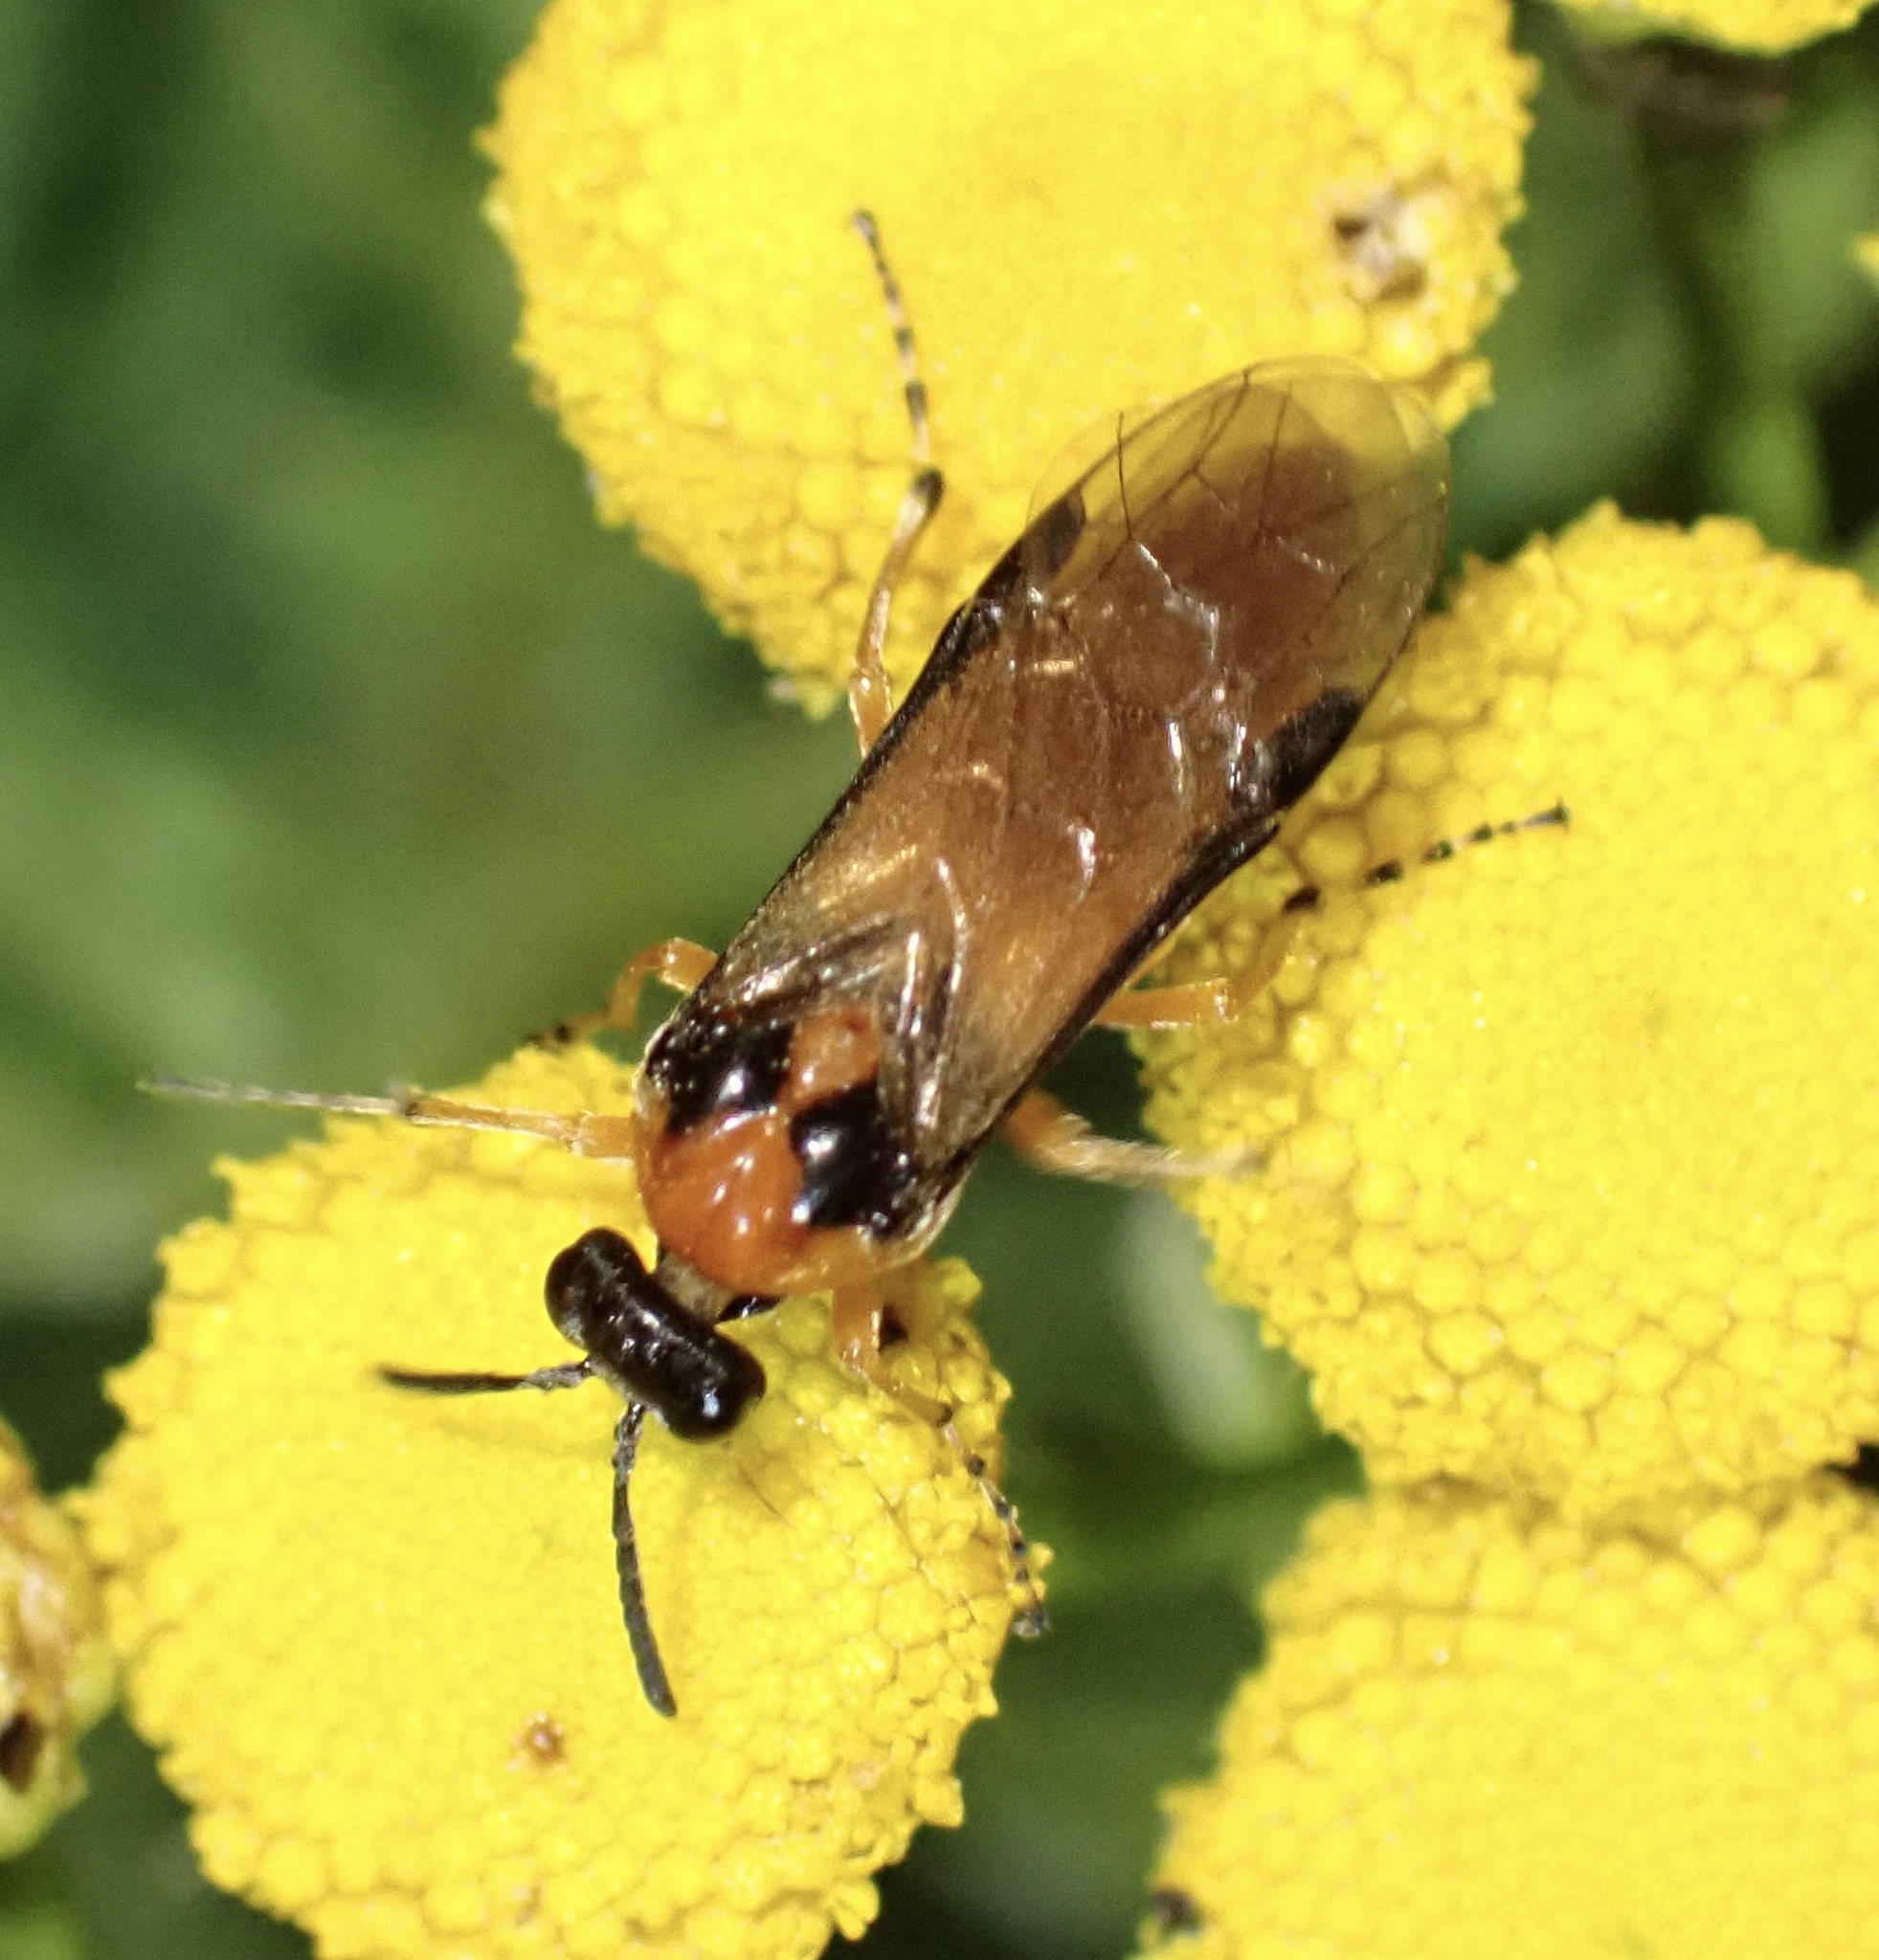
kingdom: Animalia
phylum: Arthropoda
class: Insecta
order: Hymenoptera
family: Tenthredinidae
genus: Athalia
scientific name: Athalia rosae
